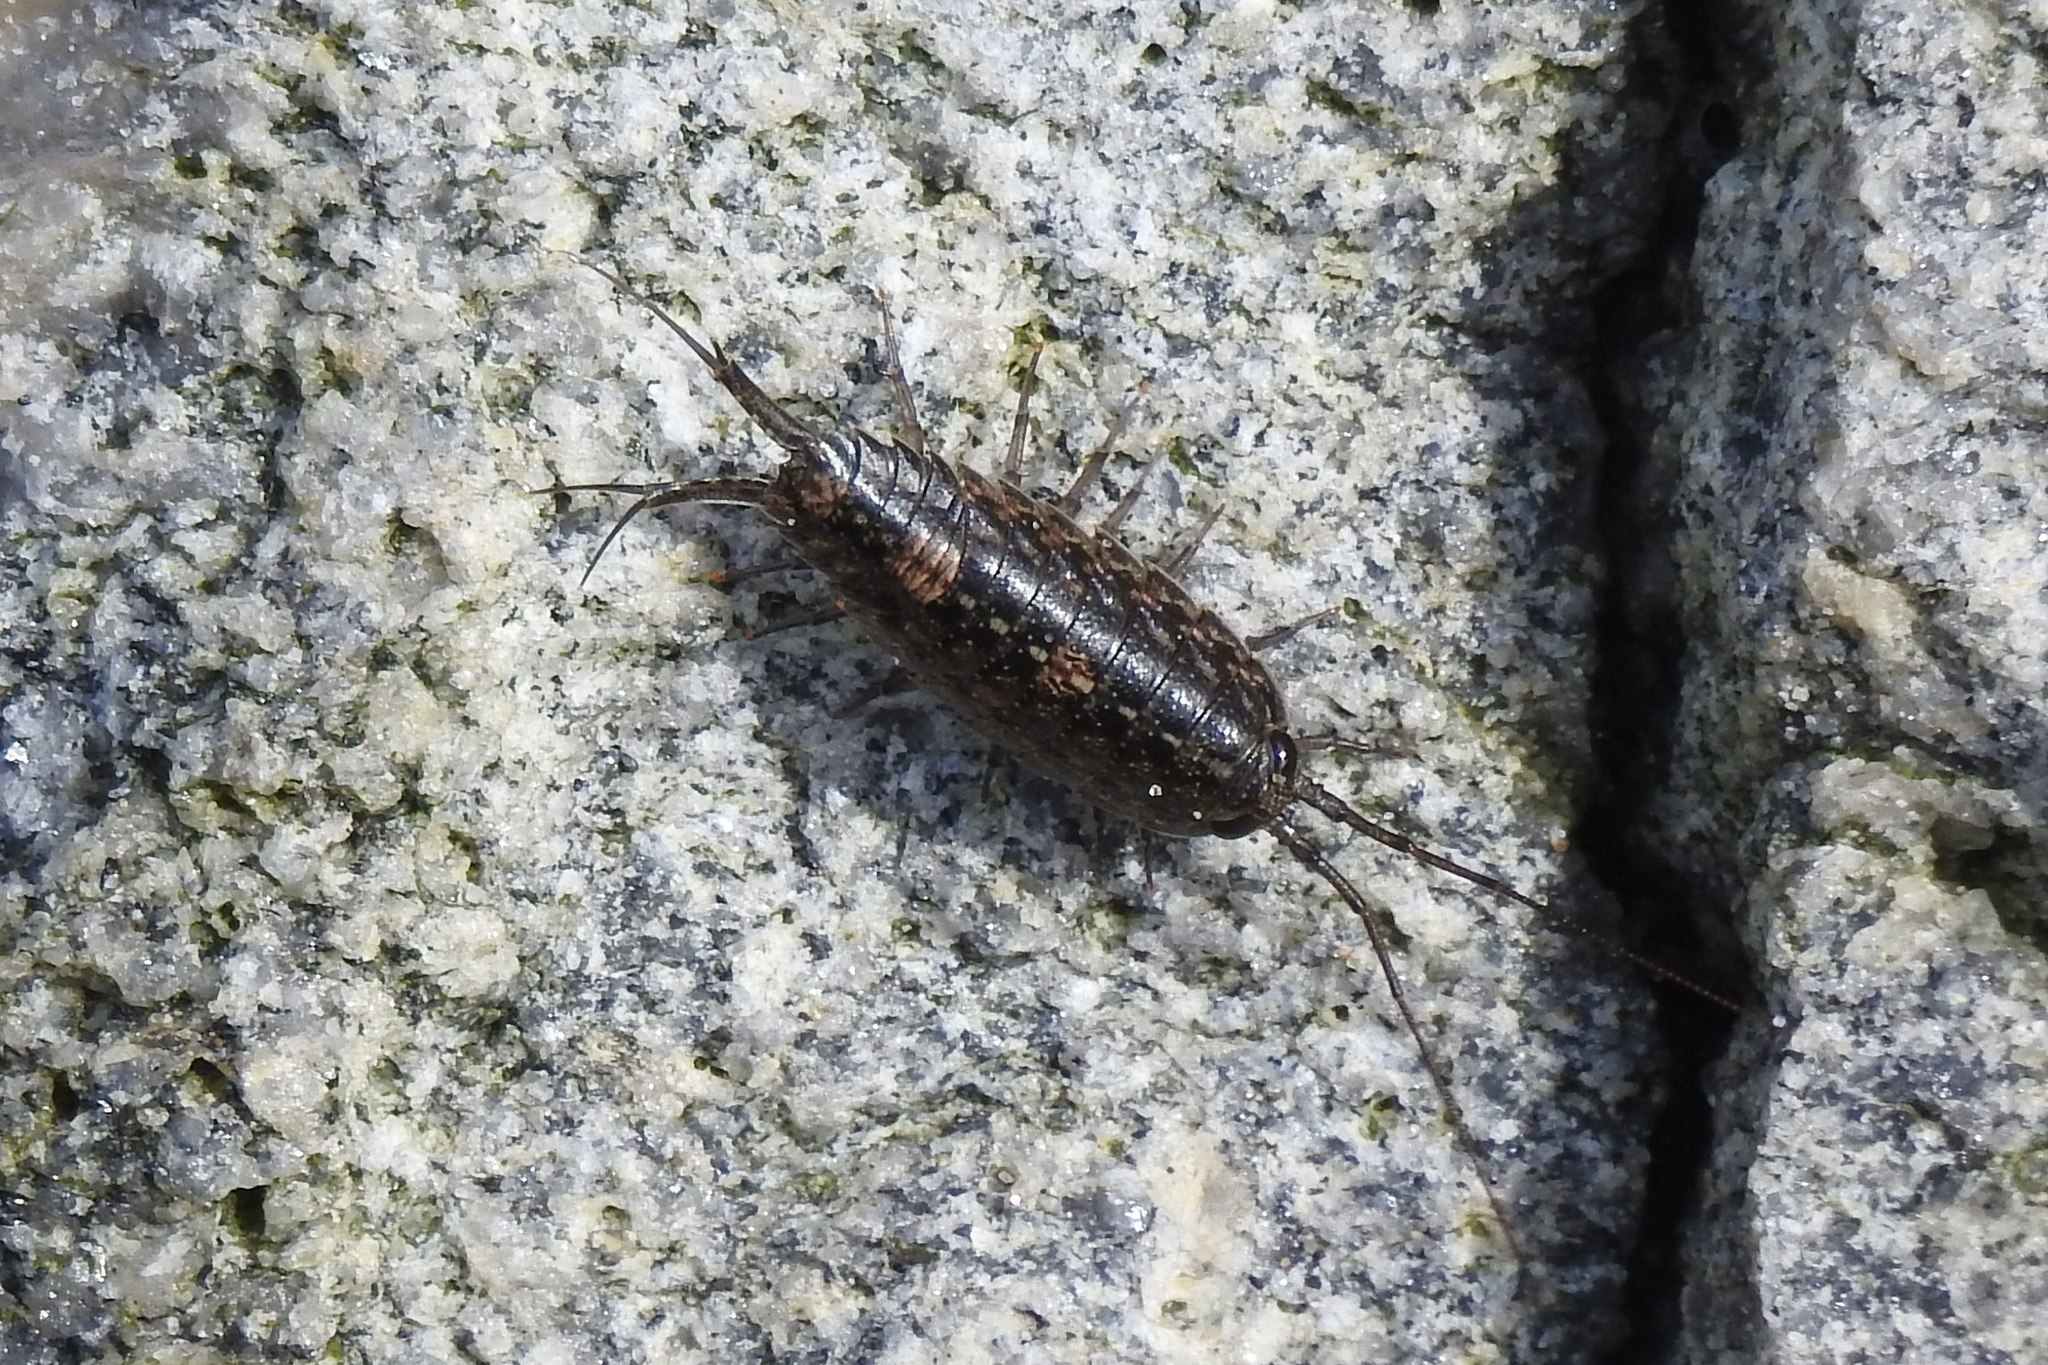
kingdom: Animalia
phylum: Arthropoda
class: Malacostraca
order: Isopoda
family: Ligiidae
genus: Ligia
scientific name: Ligia exotica
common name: Wharf roach
